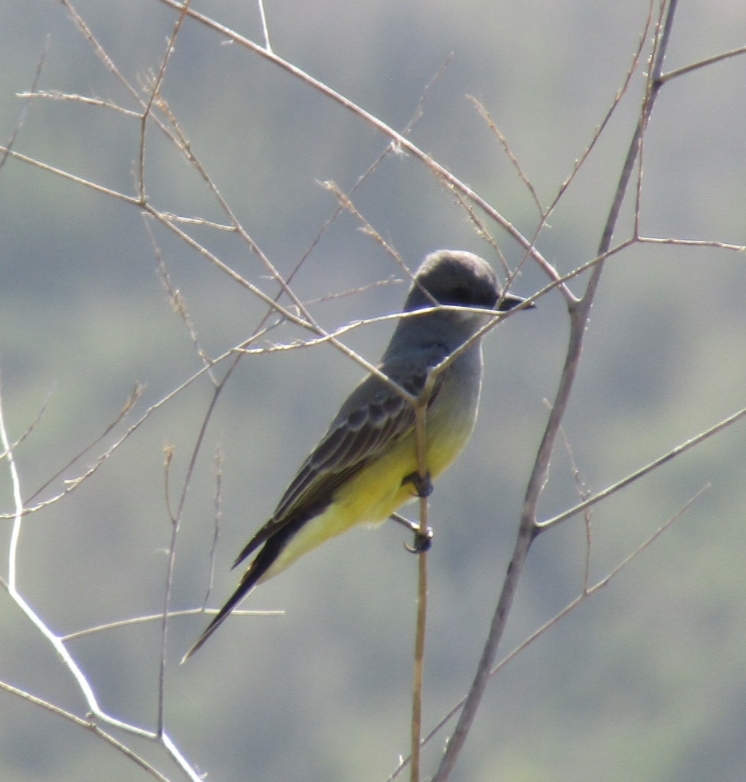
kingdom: Animalia
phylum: Chordata
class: Aves
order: Passeriformes
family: Tyrannidae
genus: Tyrannus
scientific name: Tyrannus vociferans
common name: Cassin's kingbird
